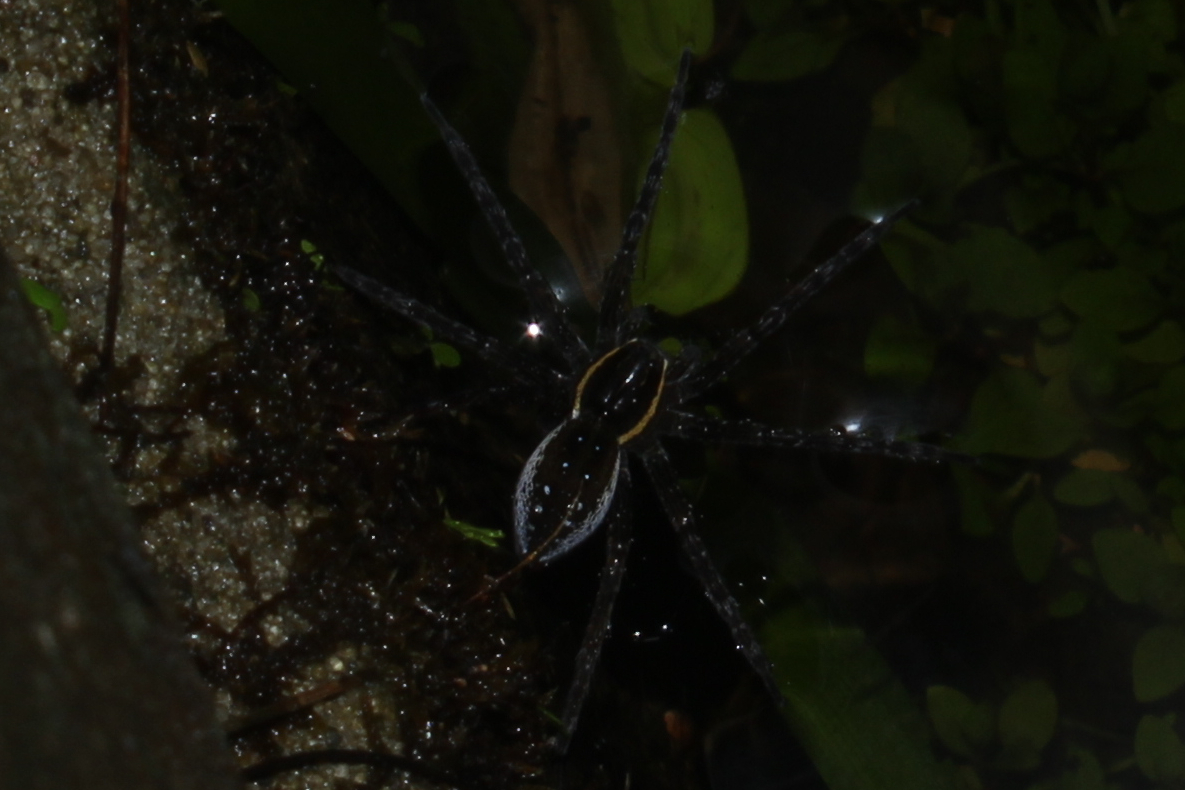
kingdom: Animalia
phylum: Arthropoda
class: Arachnida
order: Araneae
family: Pisauridae
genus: Dolomedes
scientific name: Dolomedes triton
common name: Six-spotted fishing spider
